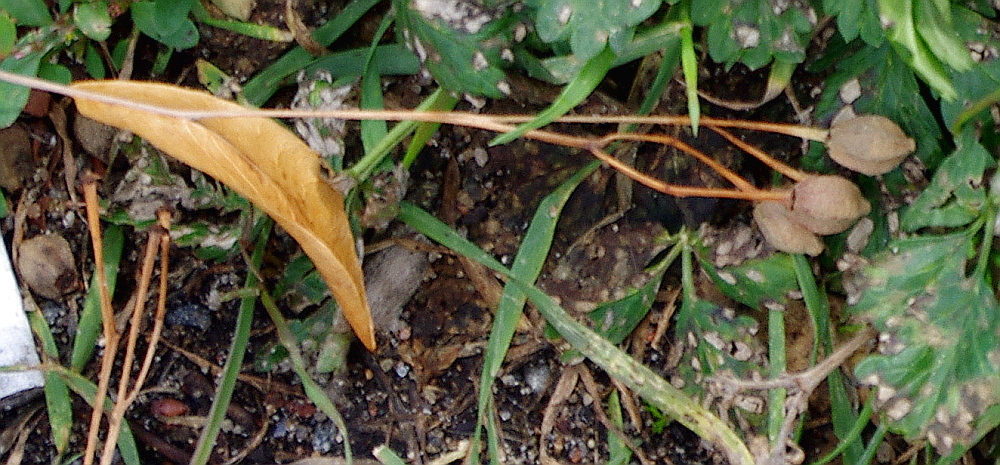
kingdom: Plantae
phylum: Tracheophyta
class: Magnoliopsida
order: Malvales
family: Malvaceae
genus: Tilia
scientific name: Tilia platyphyllos
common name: Large-leaved lime
